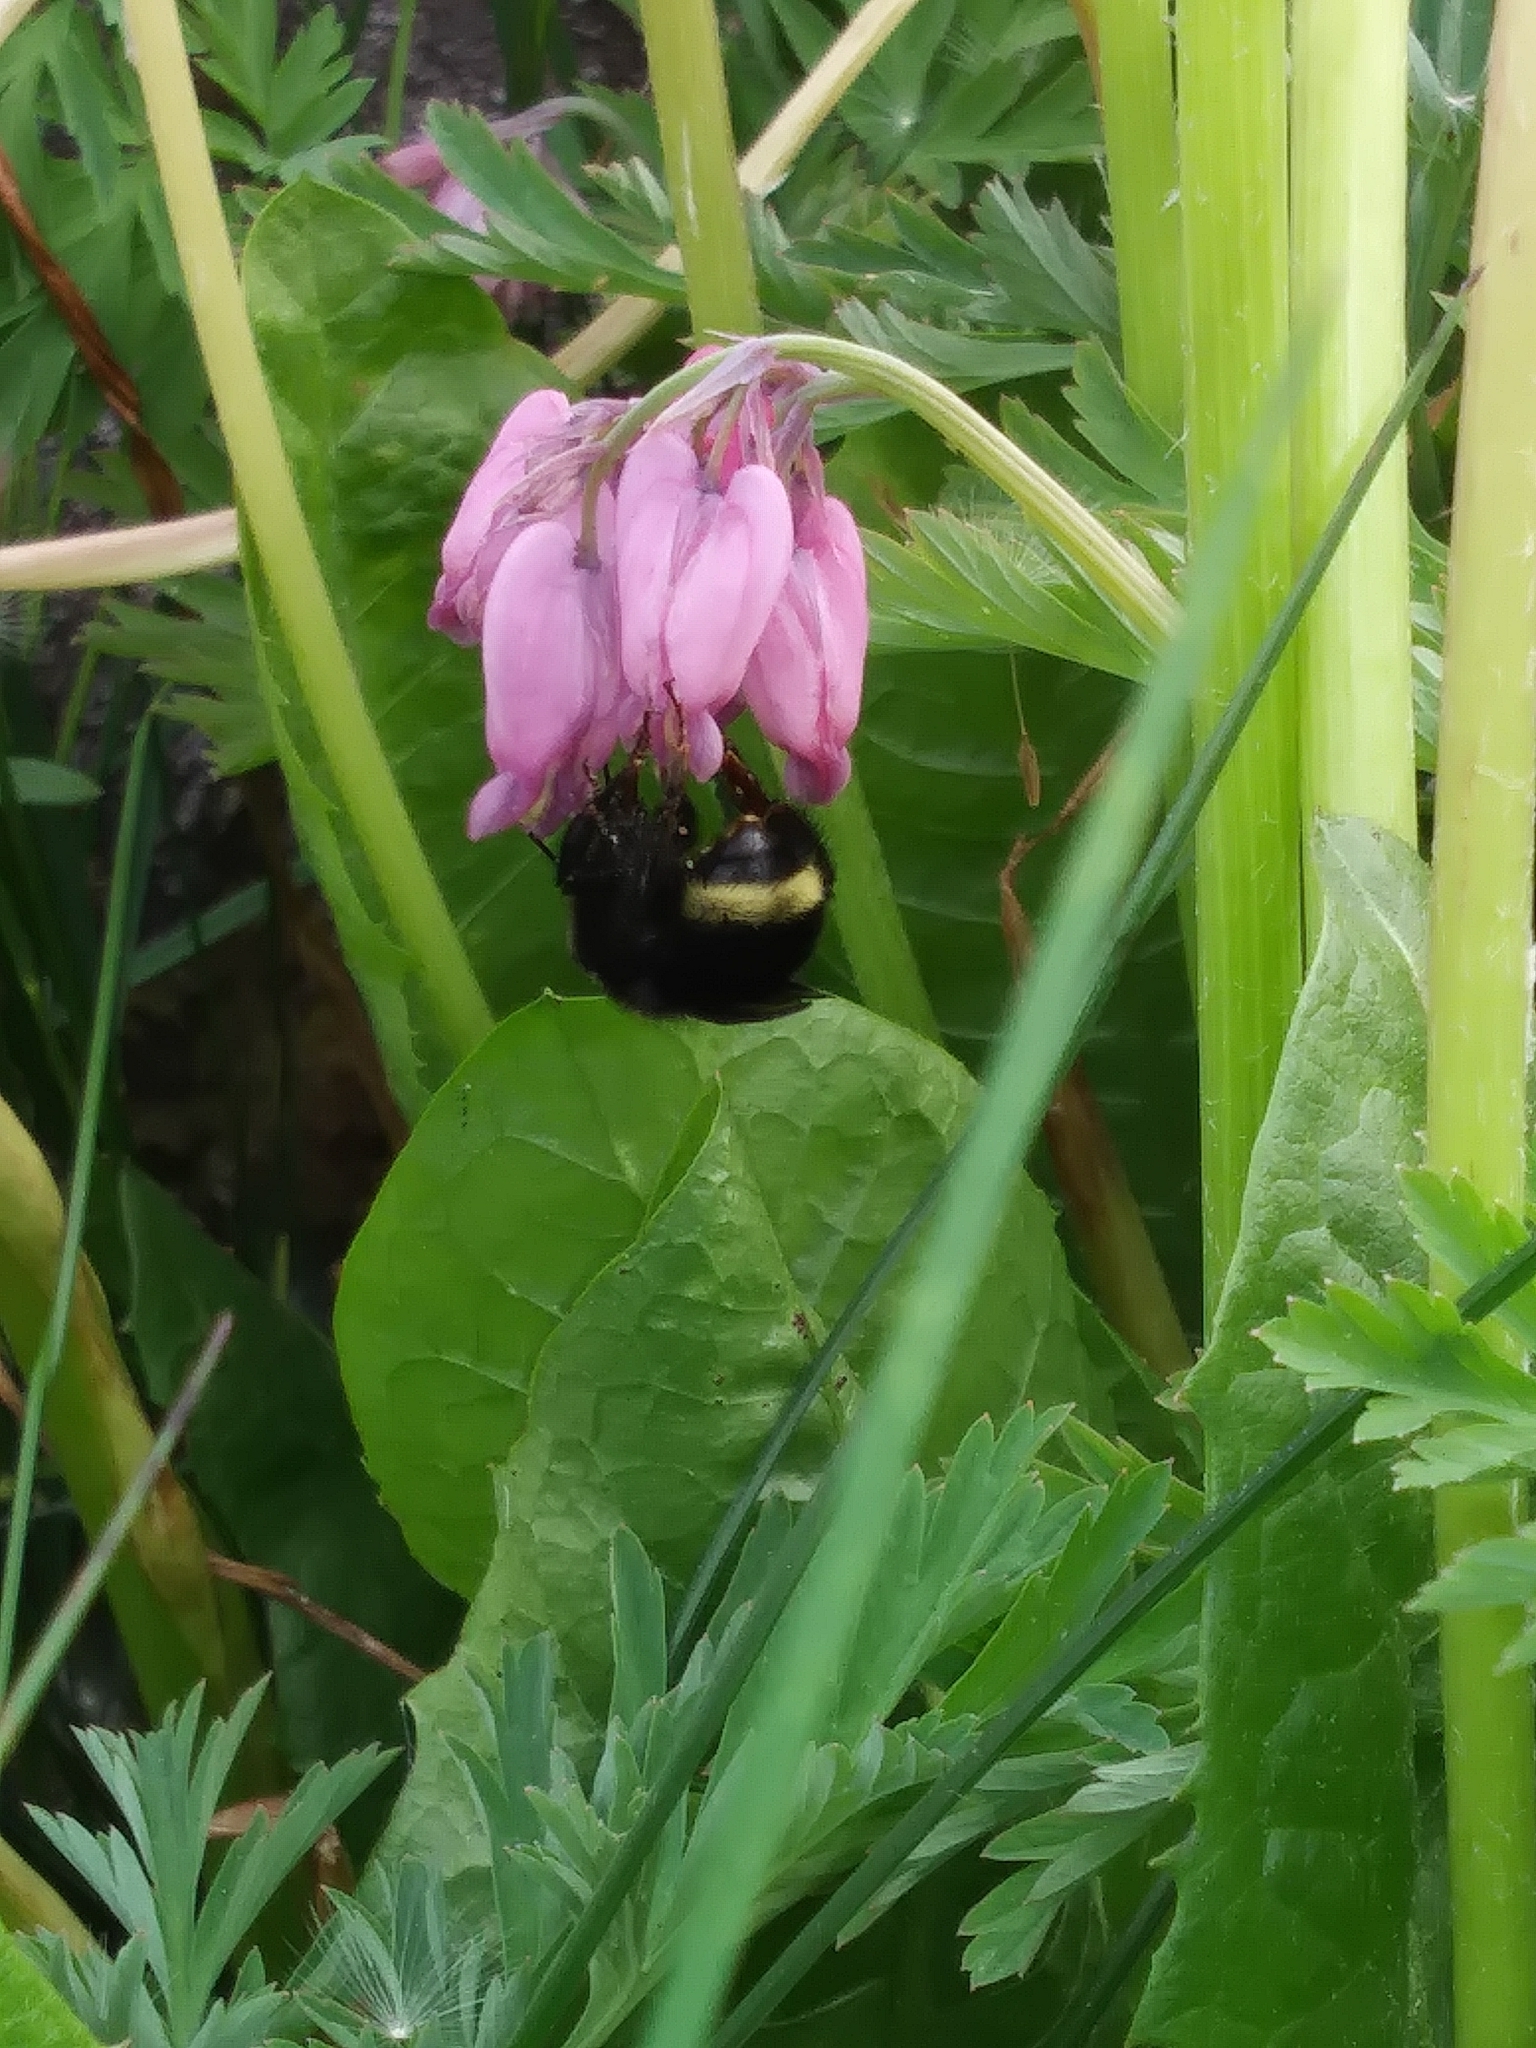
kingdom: Animalia
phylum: Arthropoda
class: Insecta
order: Hymenoptera
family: Apidae
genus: Bombus
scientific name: Bombus californicus
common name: California bumble bee
